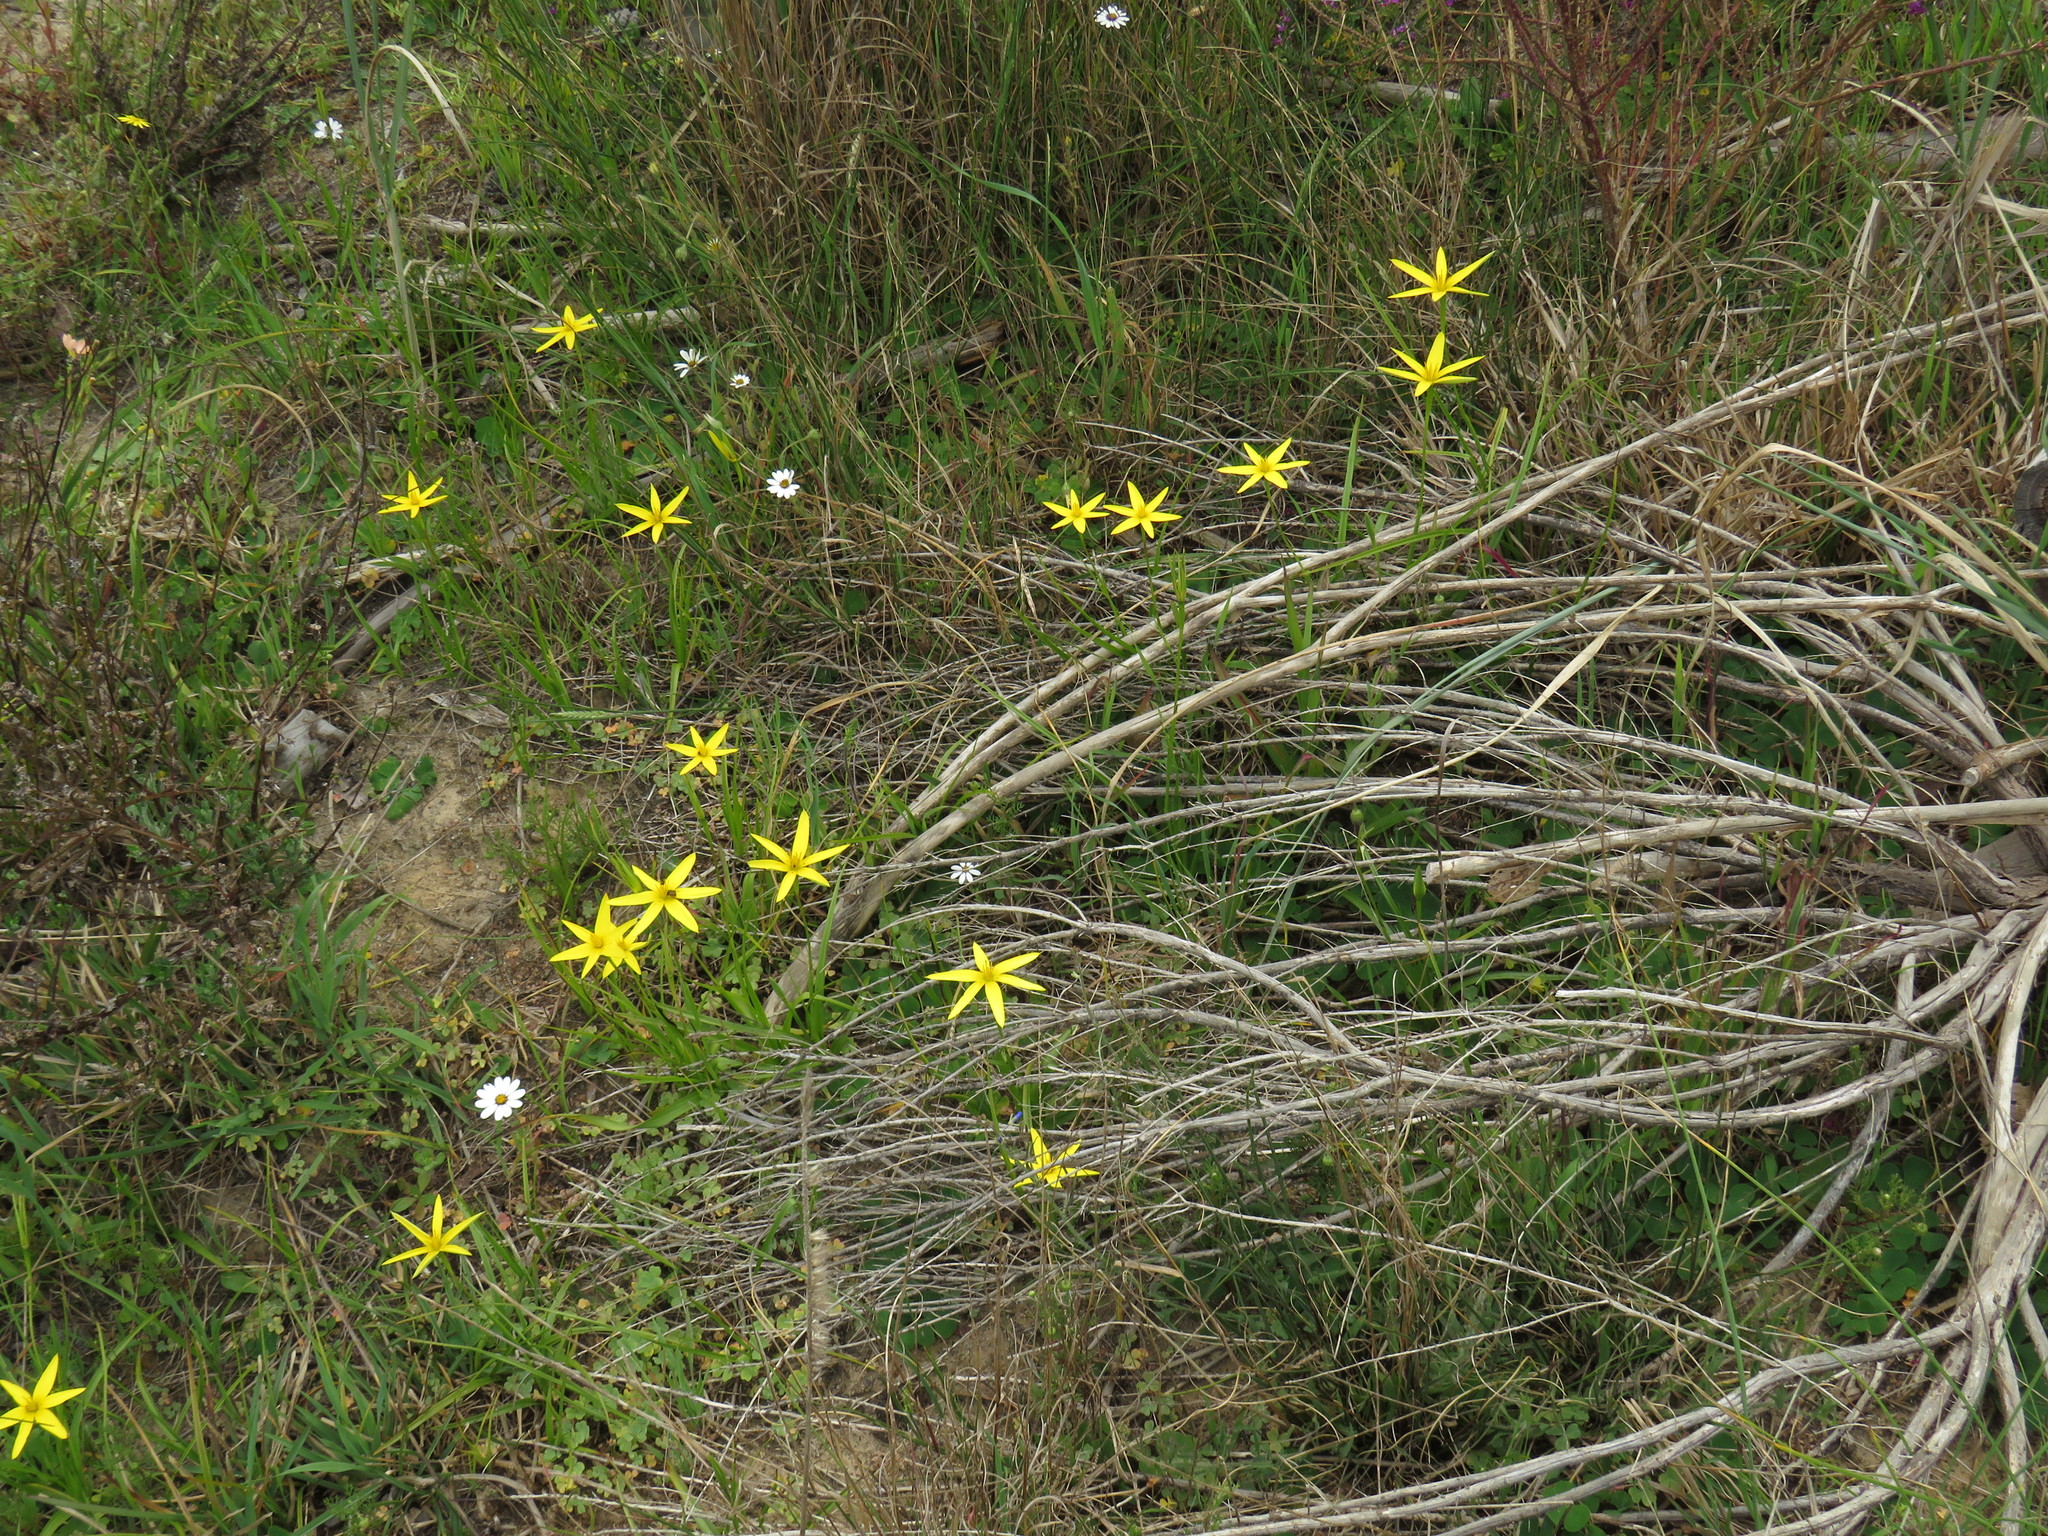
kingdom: Plantae
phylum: Tracheophyta
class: Liliopsida
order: Asparagales
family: Hypoxidaceae
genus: Pauridia
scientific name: Pauridia capensis
